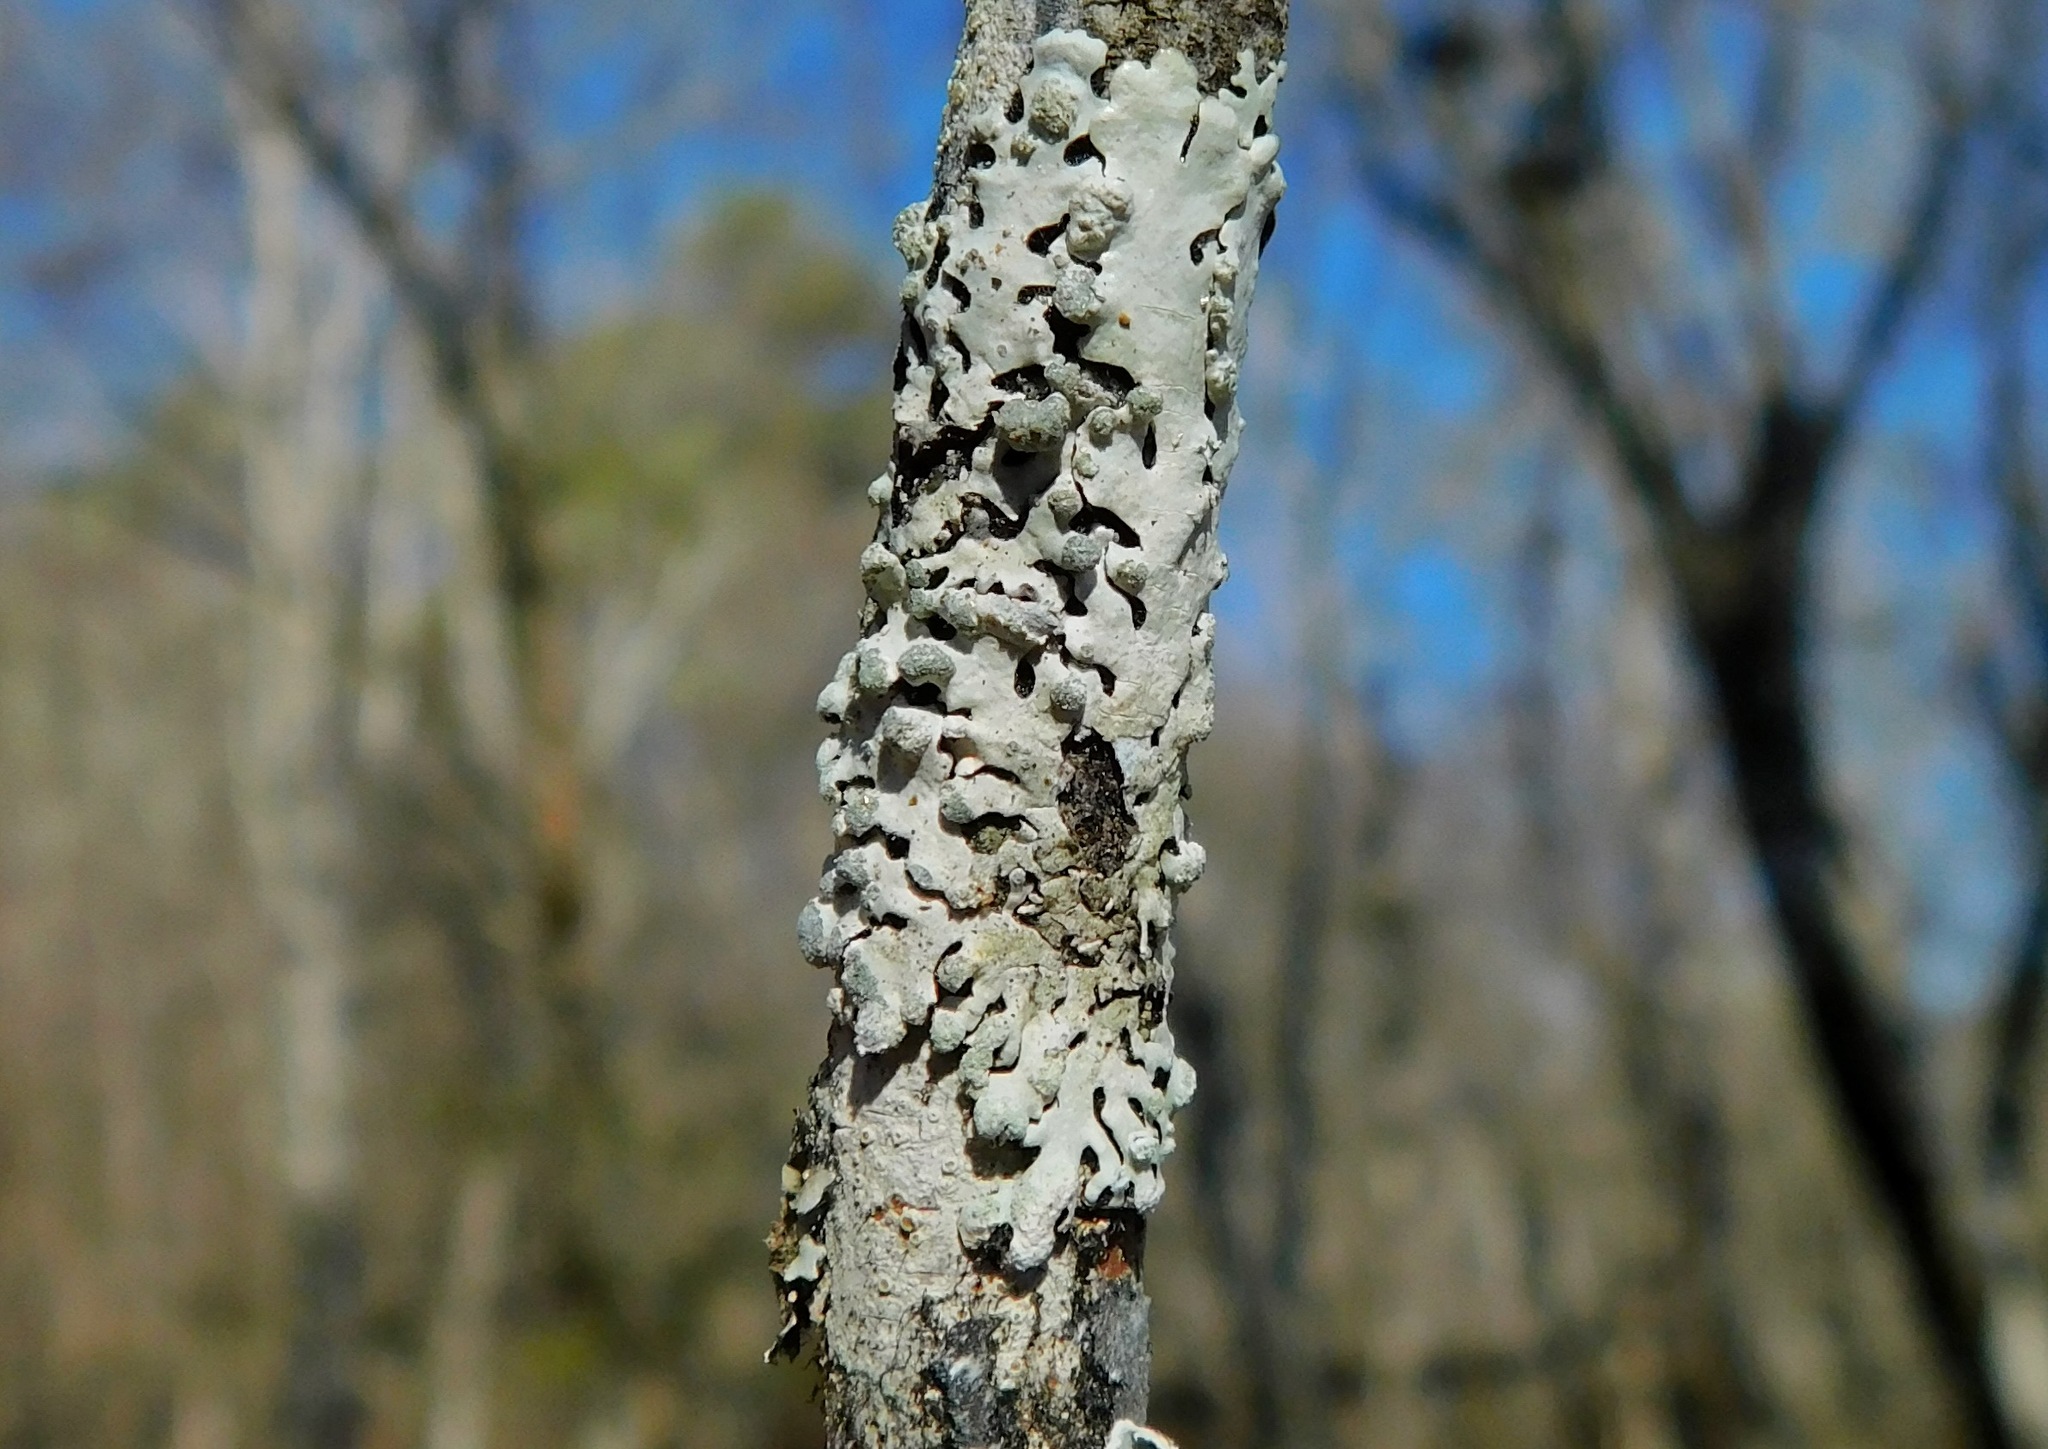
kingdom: Fungi
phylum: Ascomycota
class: Lecanoromycetes
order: Lecanorales
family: Parmeliaceae
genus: Myelochroa
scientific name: Myelochroa metarevoluta
